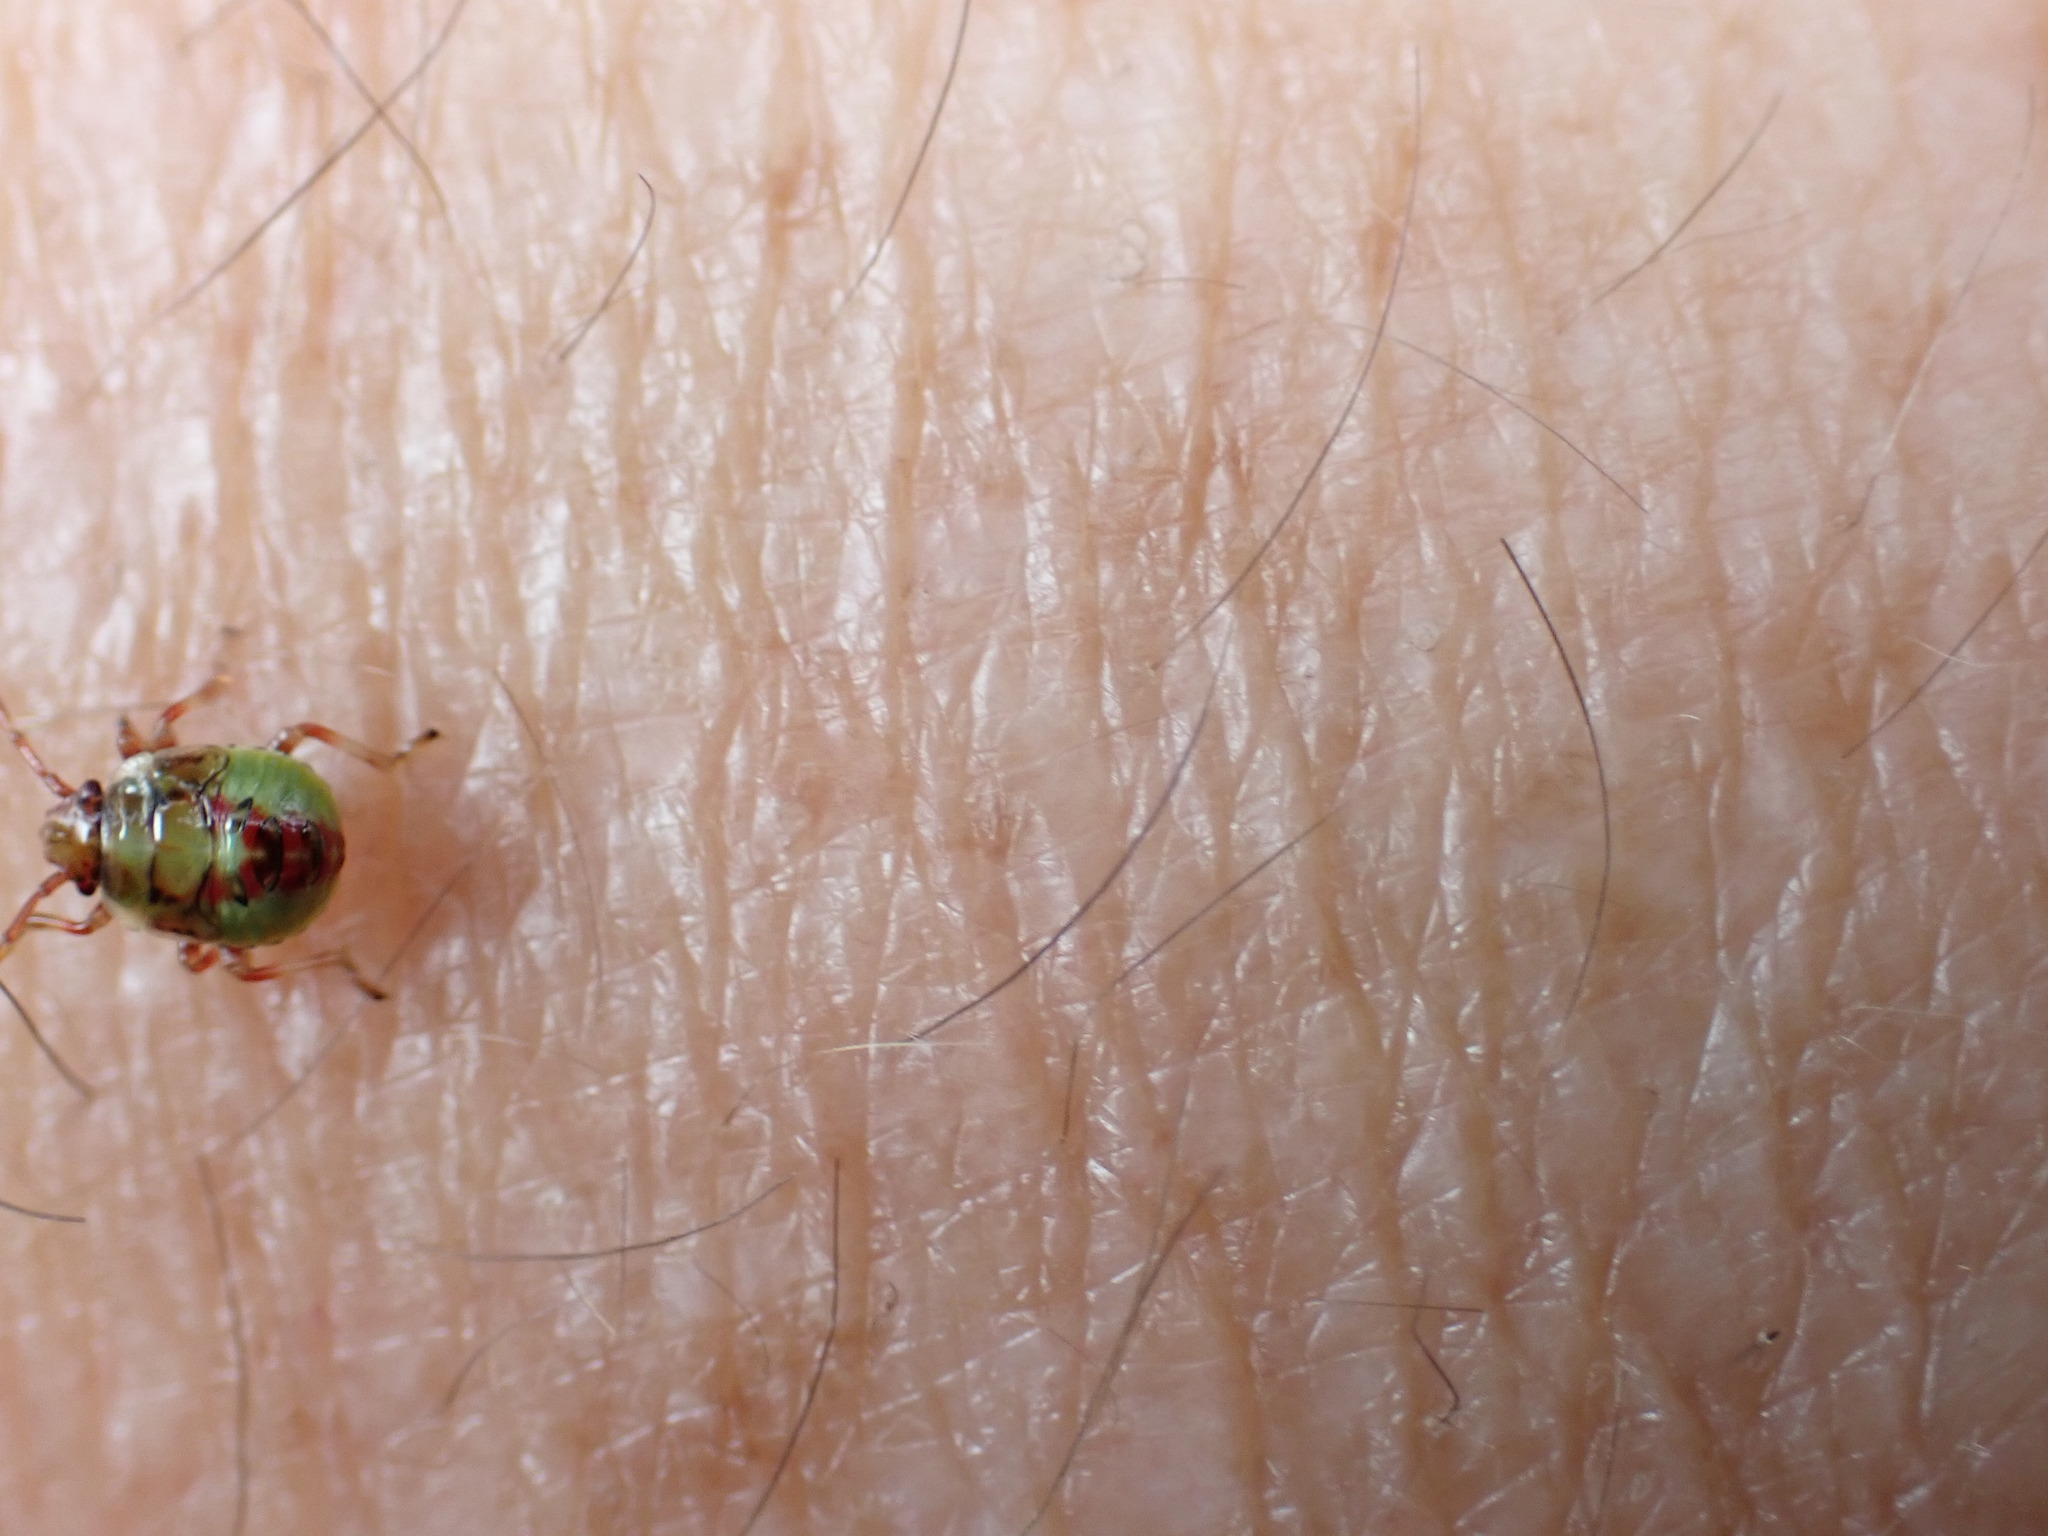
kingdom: Animalia
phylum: Arthropoda
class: Insecta
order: Hemiptera
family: Acanthosomatidae
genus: Elasmostethus
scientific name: Elasmostethus interstinctus
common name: Birch shieldbug
